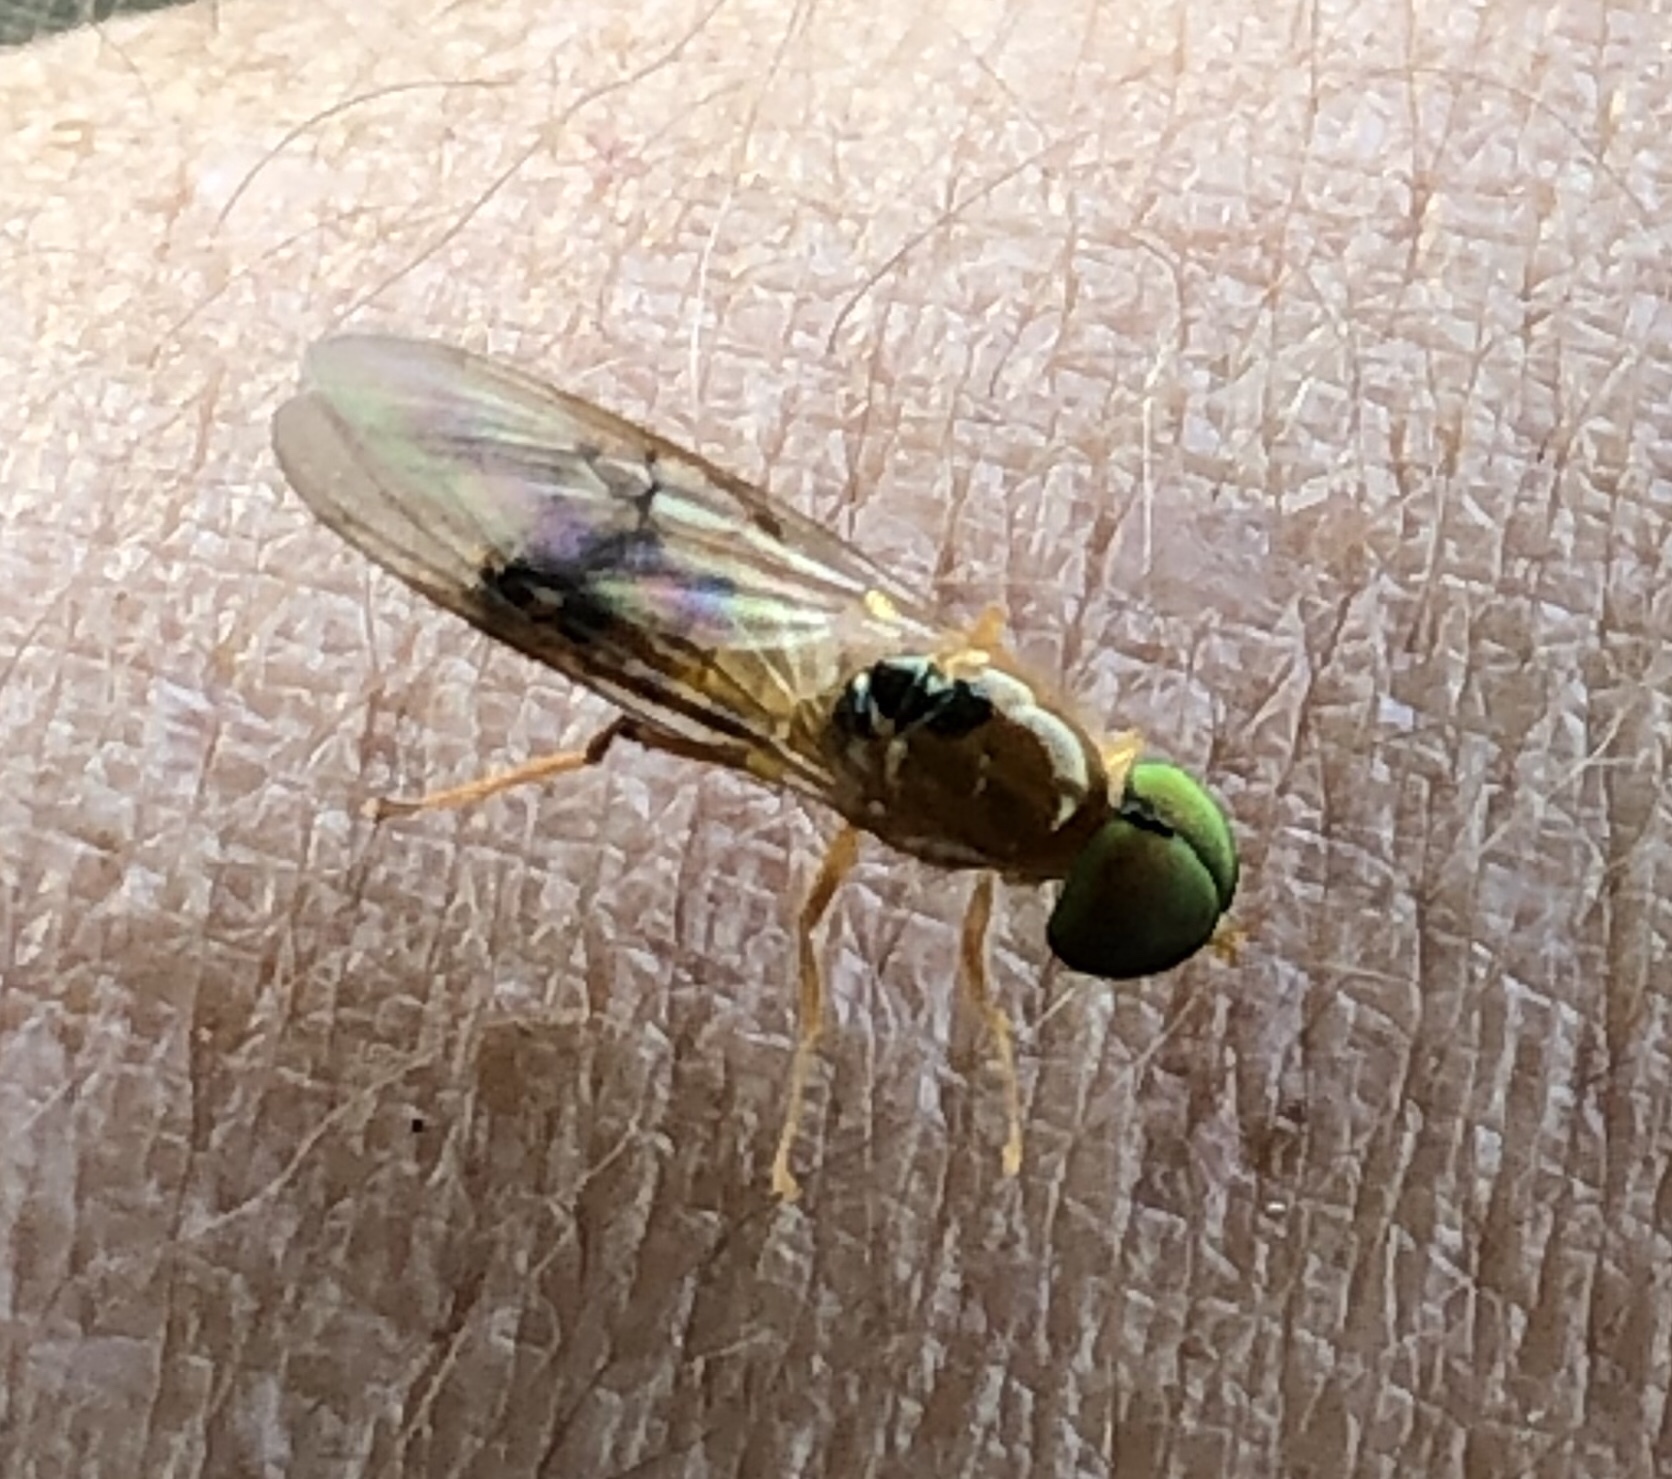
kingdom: Animalia
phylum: Arthropoda
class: Insecta
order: Diptera
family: Stratiomyidae
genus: Sargus
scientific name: Sargus elegans
